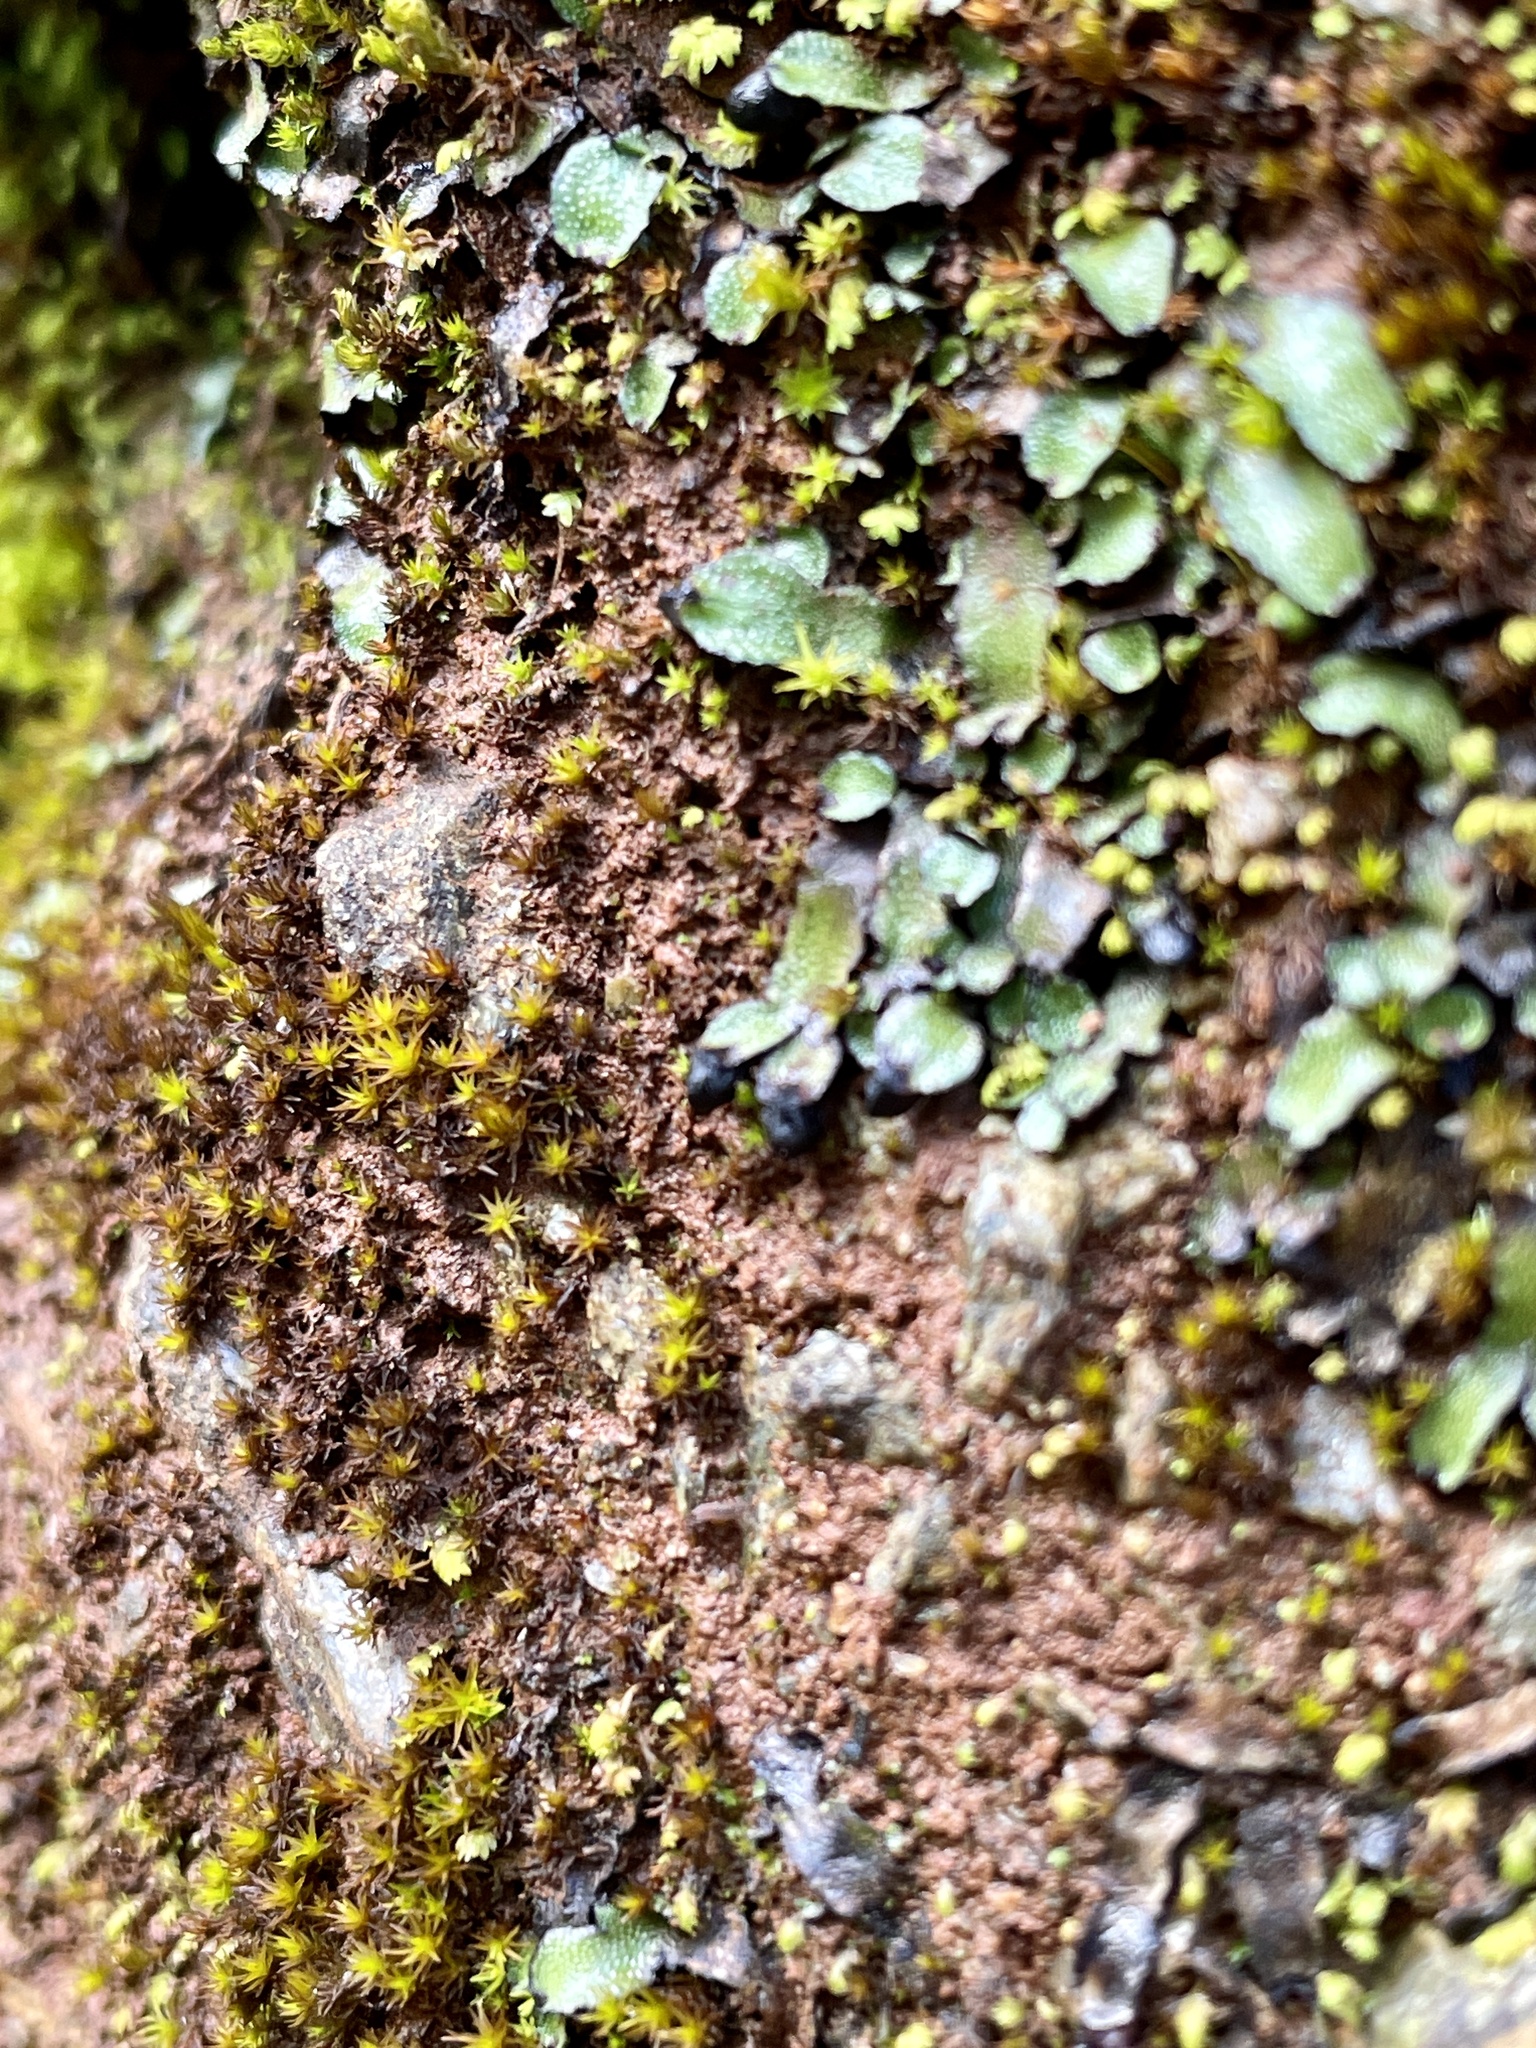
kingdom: Plantae
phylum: Marchantiophyta
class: Marchantiopsida
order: Marchantiales
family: Targioniaceae
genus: Targionia
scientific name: Targionia hypophylla
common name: Orobus-seed liverwort
